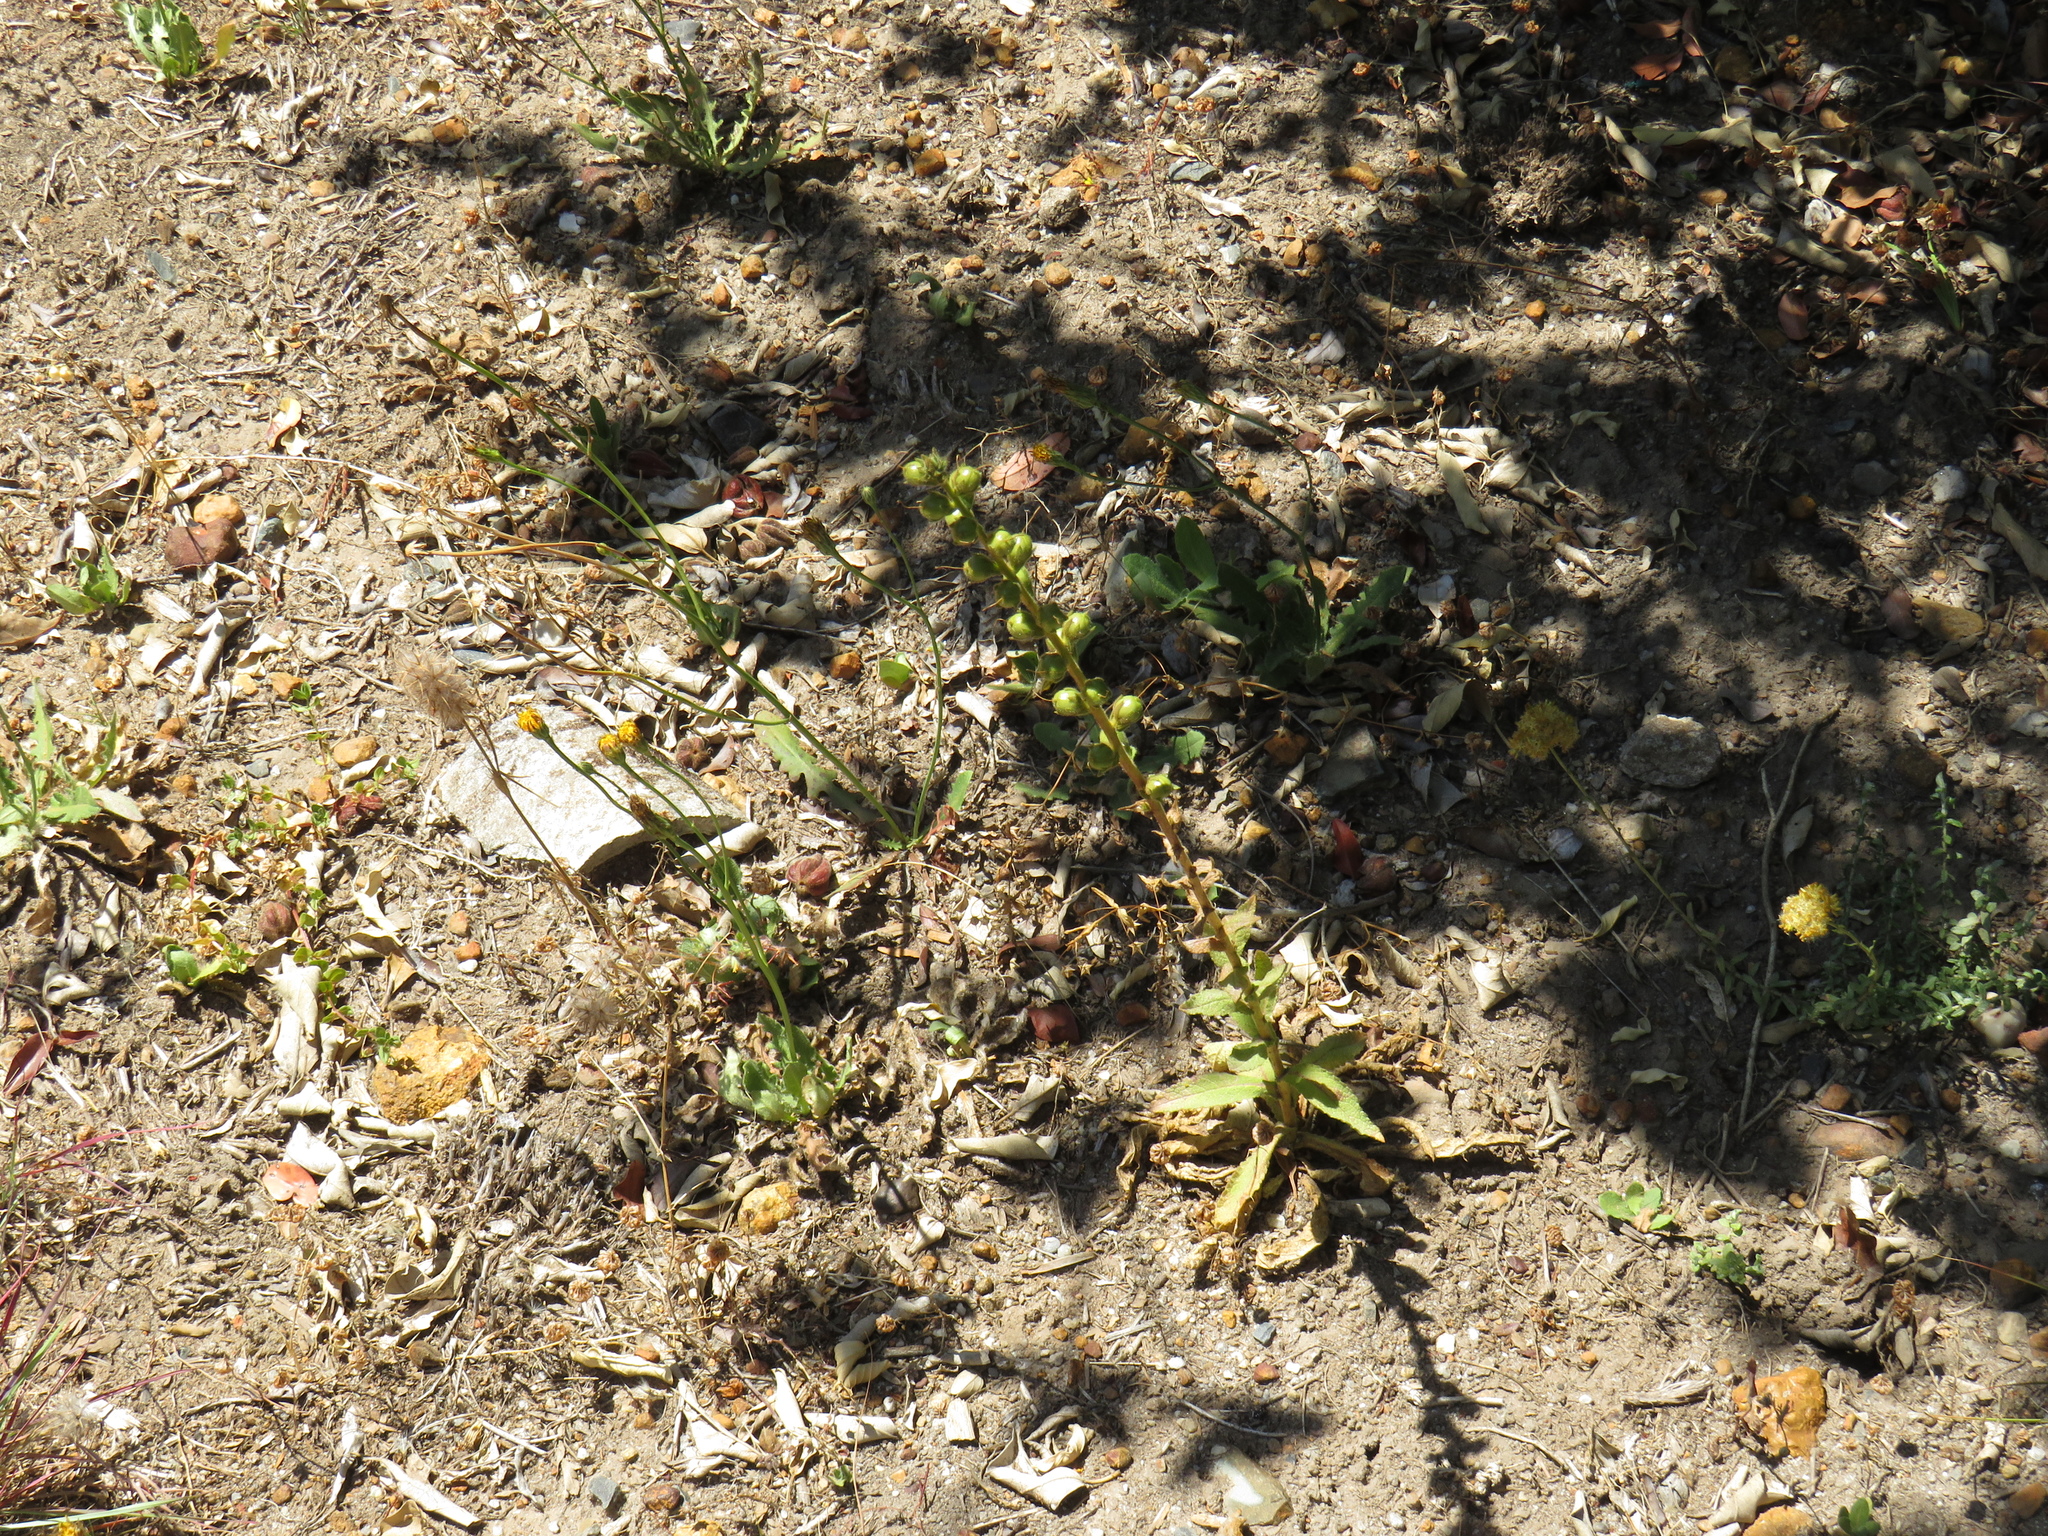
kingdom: Plantae
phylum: Tracheophyta
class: Magnoliopsida
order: Lamiales
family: Scrophulariaceae
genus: Verbascum
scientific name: Verbascum virgatum
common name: Twiggy mullein
